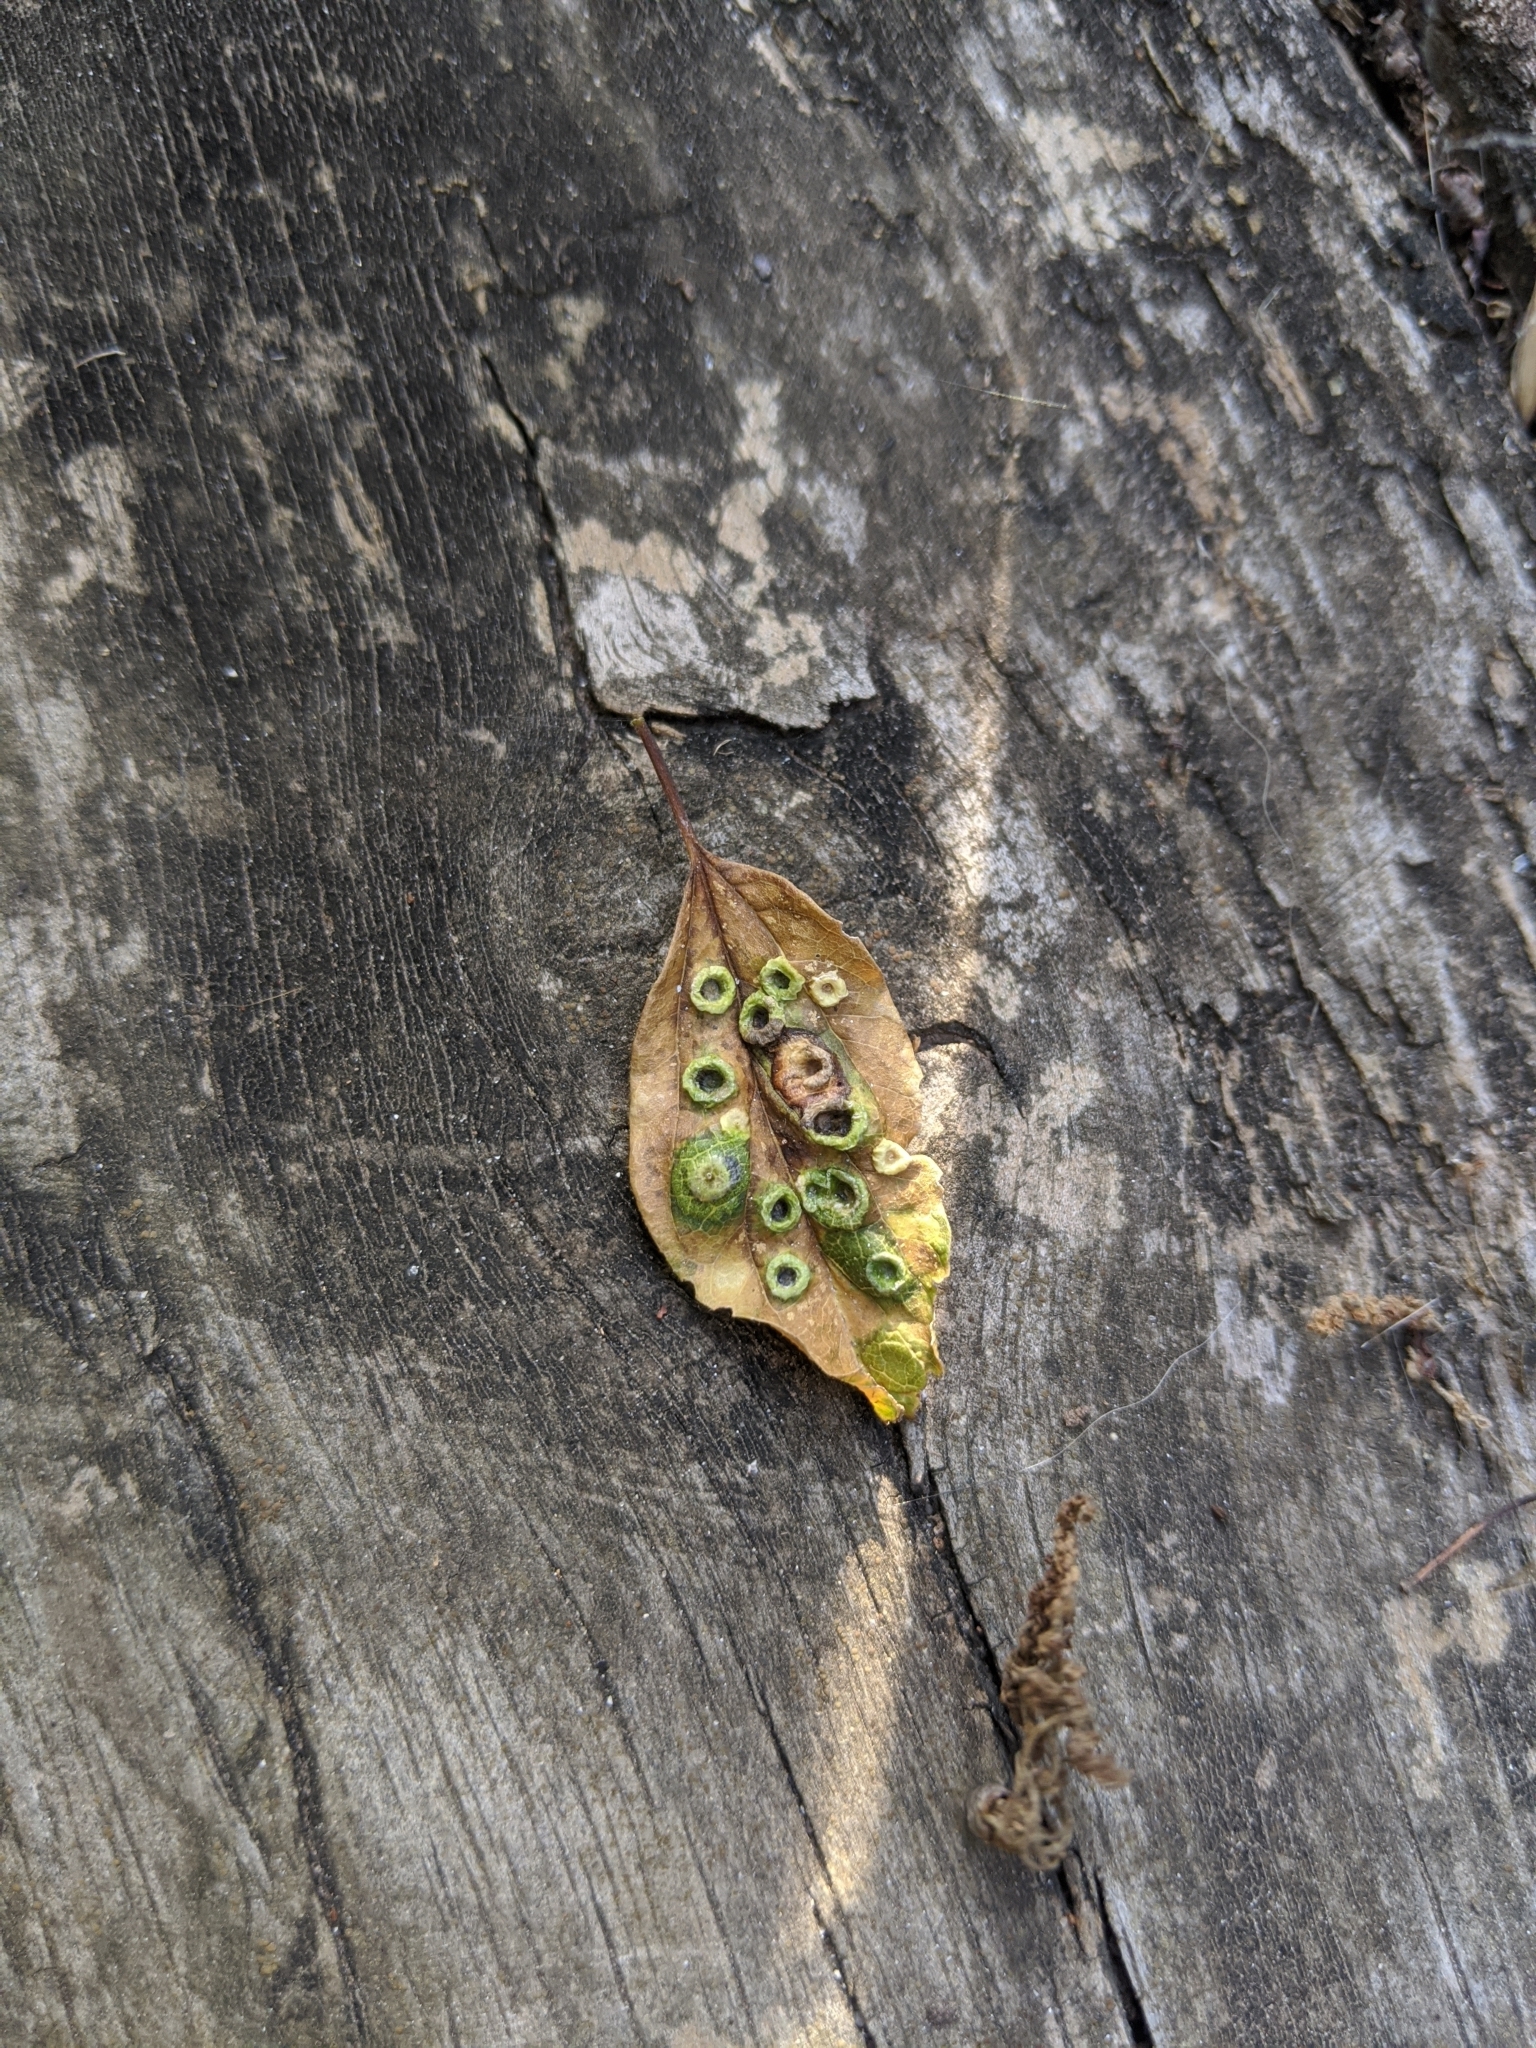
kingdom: Animalia
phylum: Arthropoda
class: Insecta
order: Hemiptera
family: Aphalaridae
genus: Pachypsylla
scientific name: Pachypsylla celtidismamma
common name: Hackberry nipplegall psyllid
